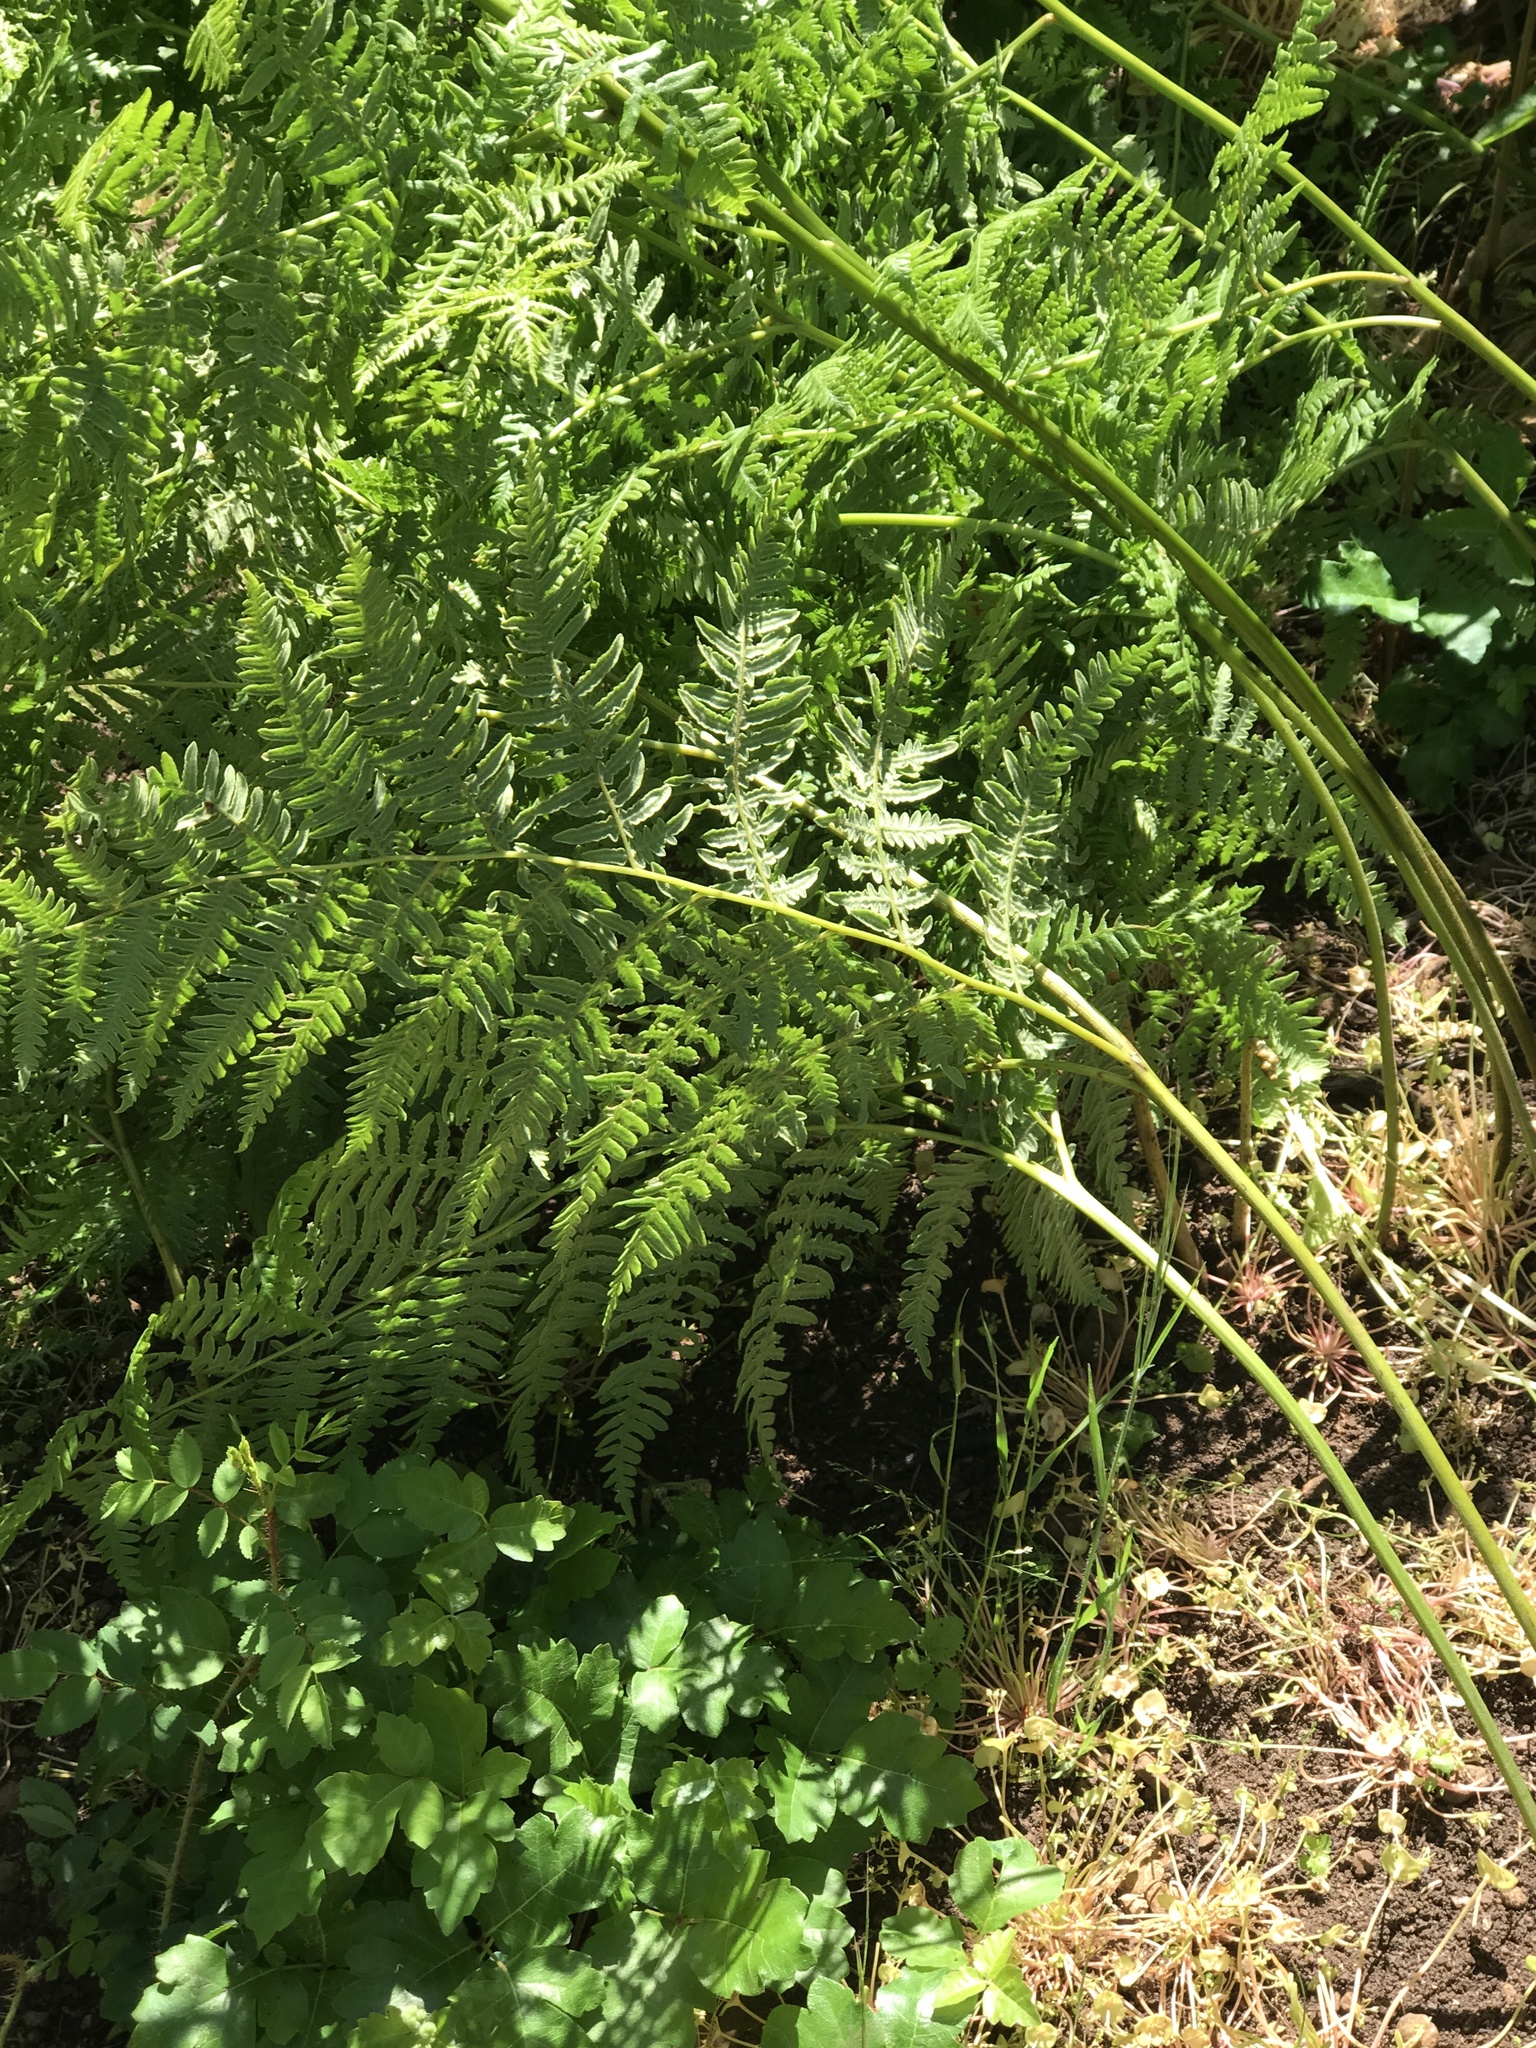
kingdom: Plantae
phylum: Tracheophyta
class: Polypodiopsida
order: Polypodiales
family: Dennstaedtiaceae
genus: Pteridium
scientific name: Pteridium aquilinum
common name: Bracken
